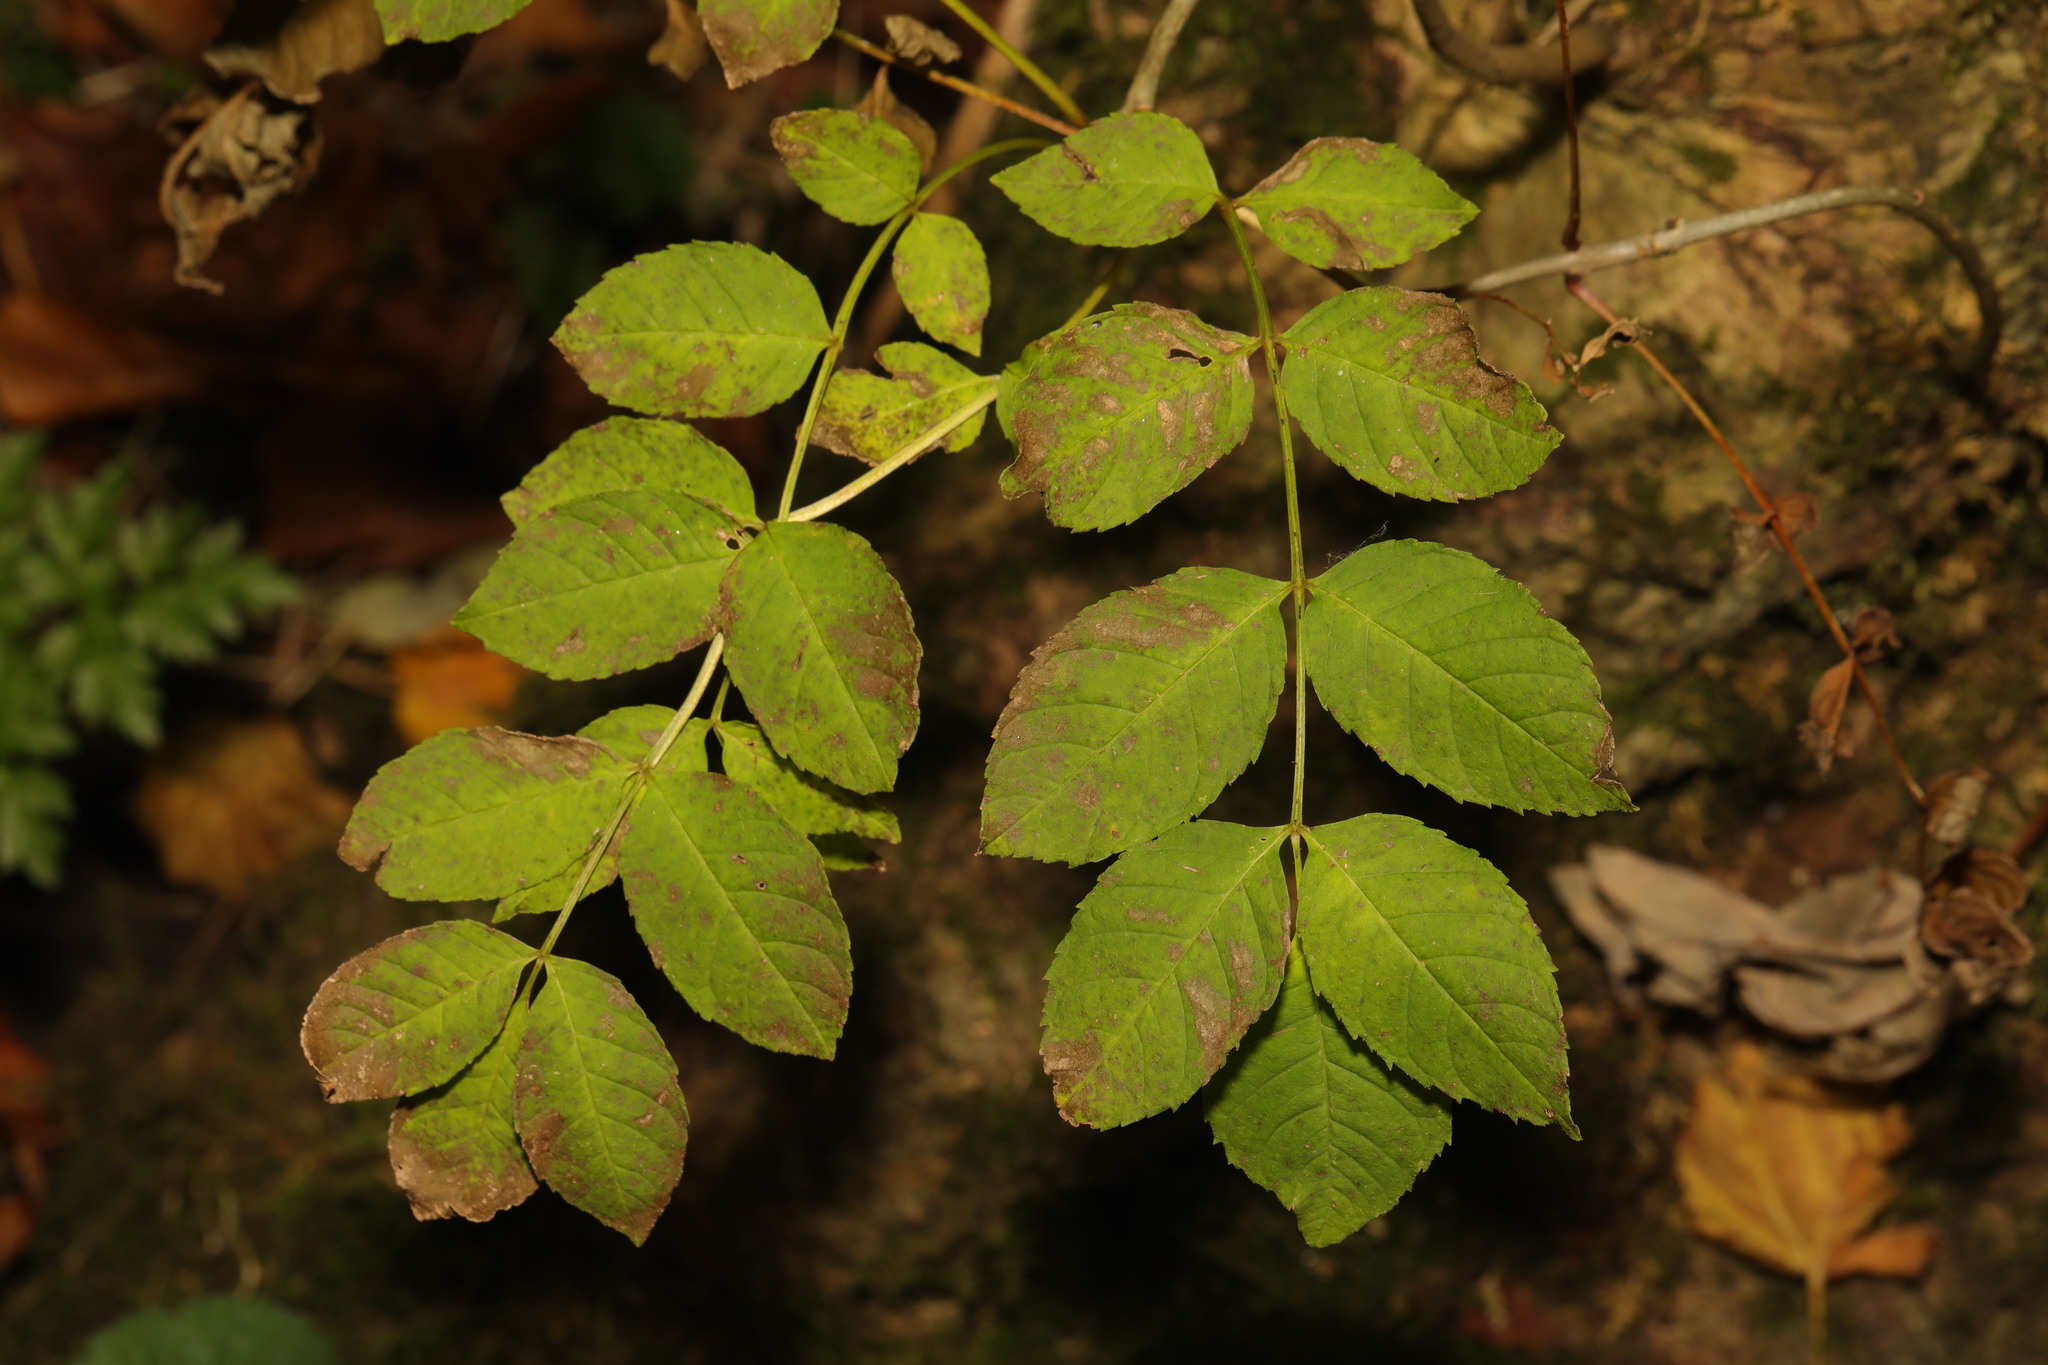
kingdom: Plantae
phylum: Tracheophyta
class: Magnoliopsida
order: Lamiales
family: Oleaceae
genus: Fraxinus
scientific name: Fraxinus excelsior
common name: European ash
